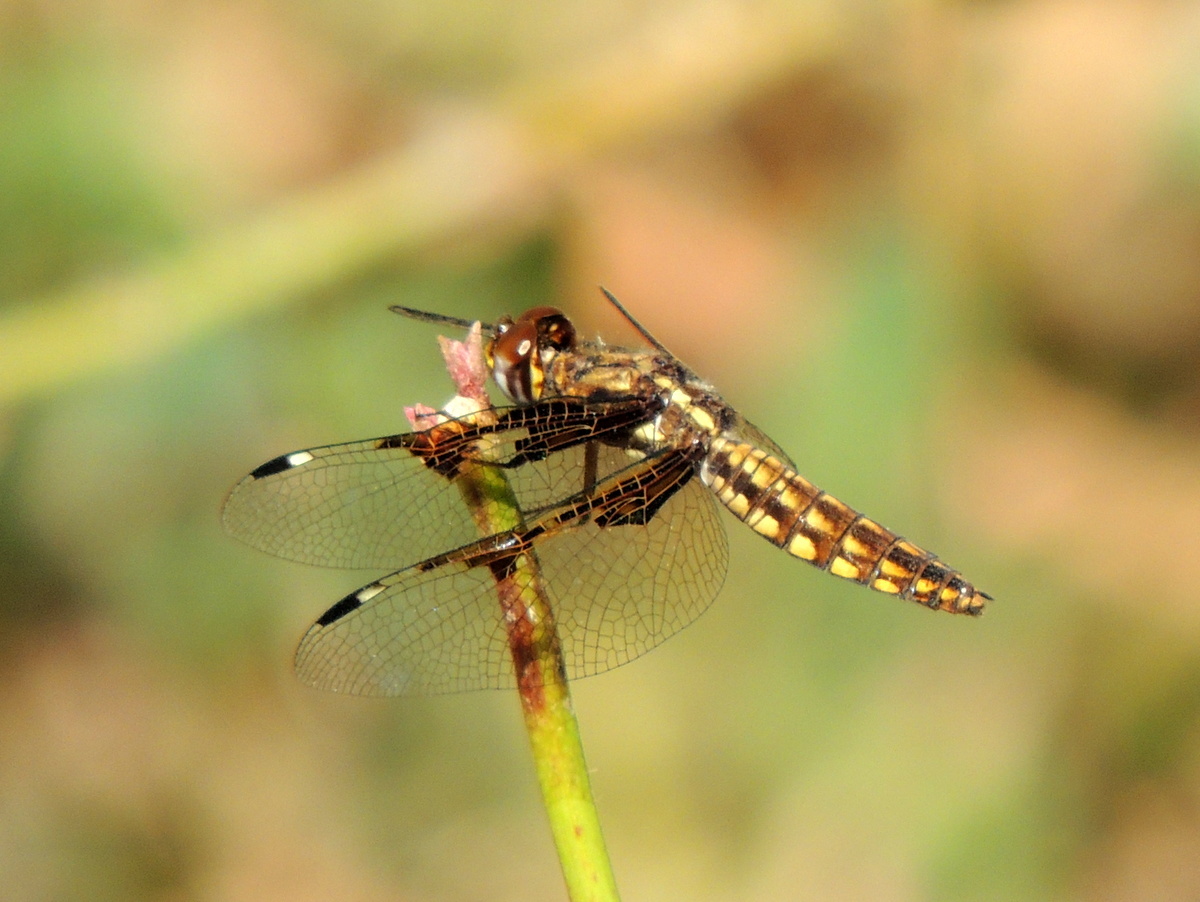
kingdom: Animalia
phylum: Arthropoda
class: Insecta
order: Odonata
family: Libellulidae
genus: Palpopleura
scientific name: Palpopleura vestita
